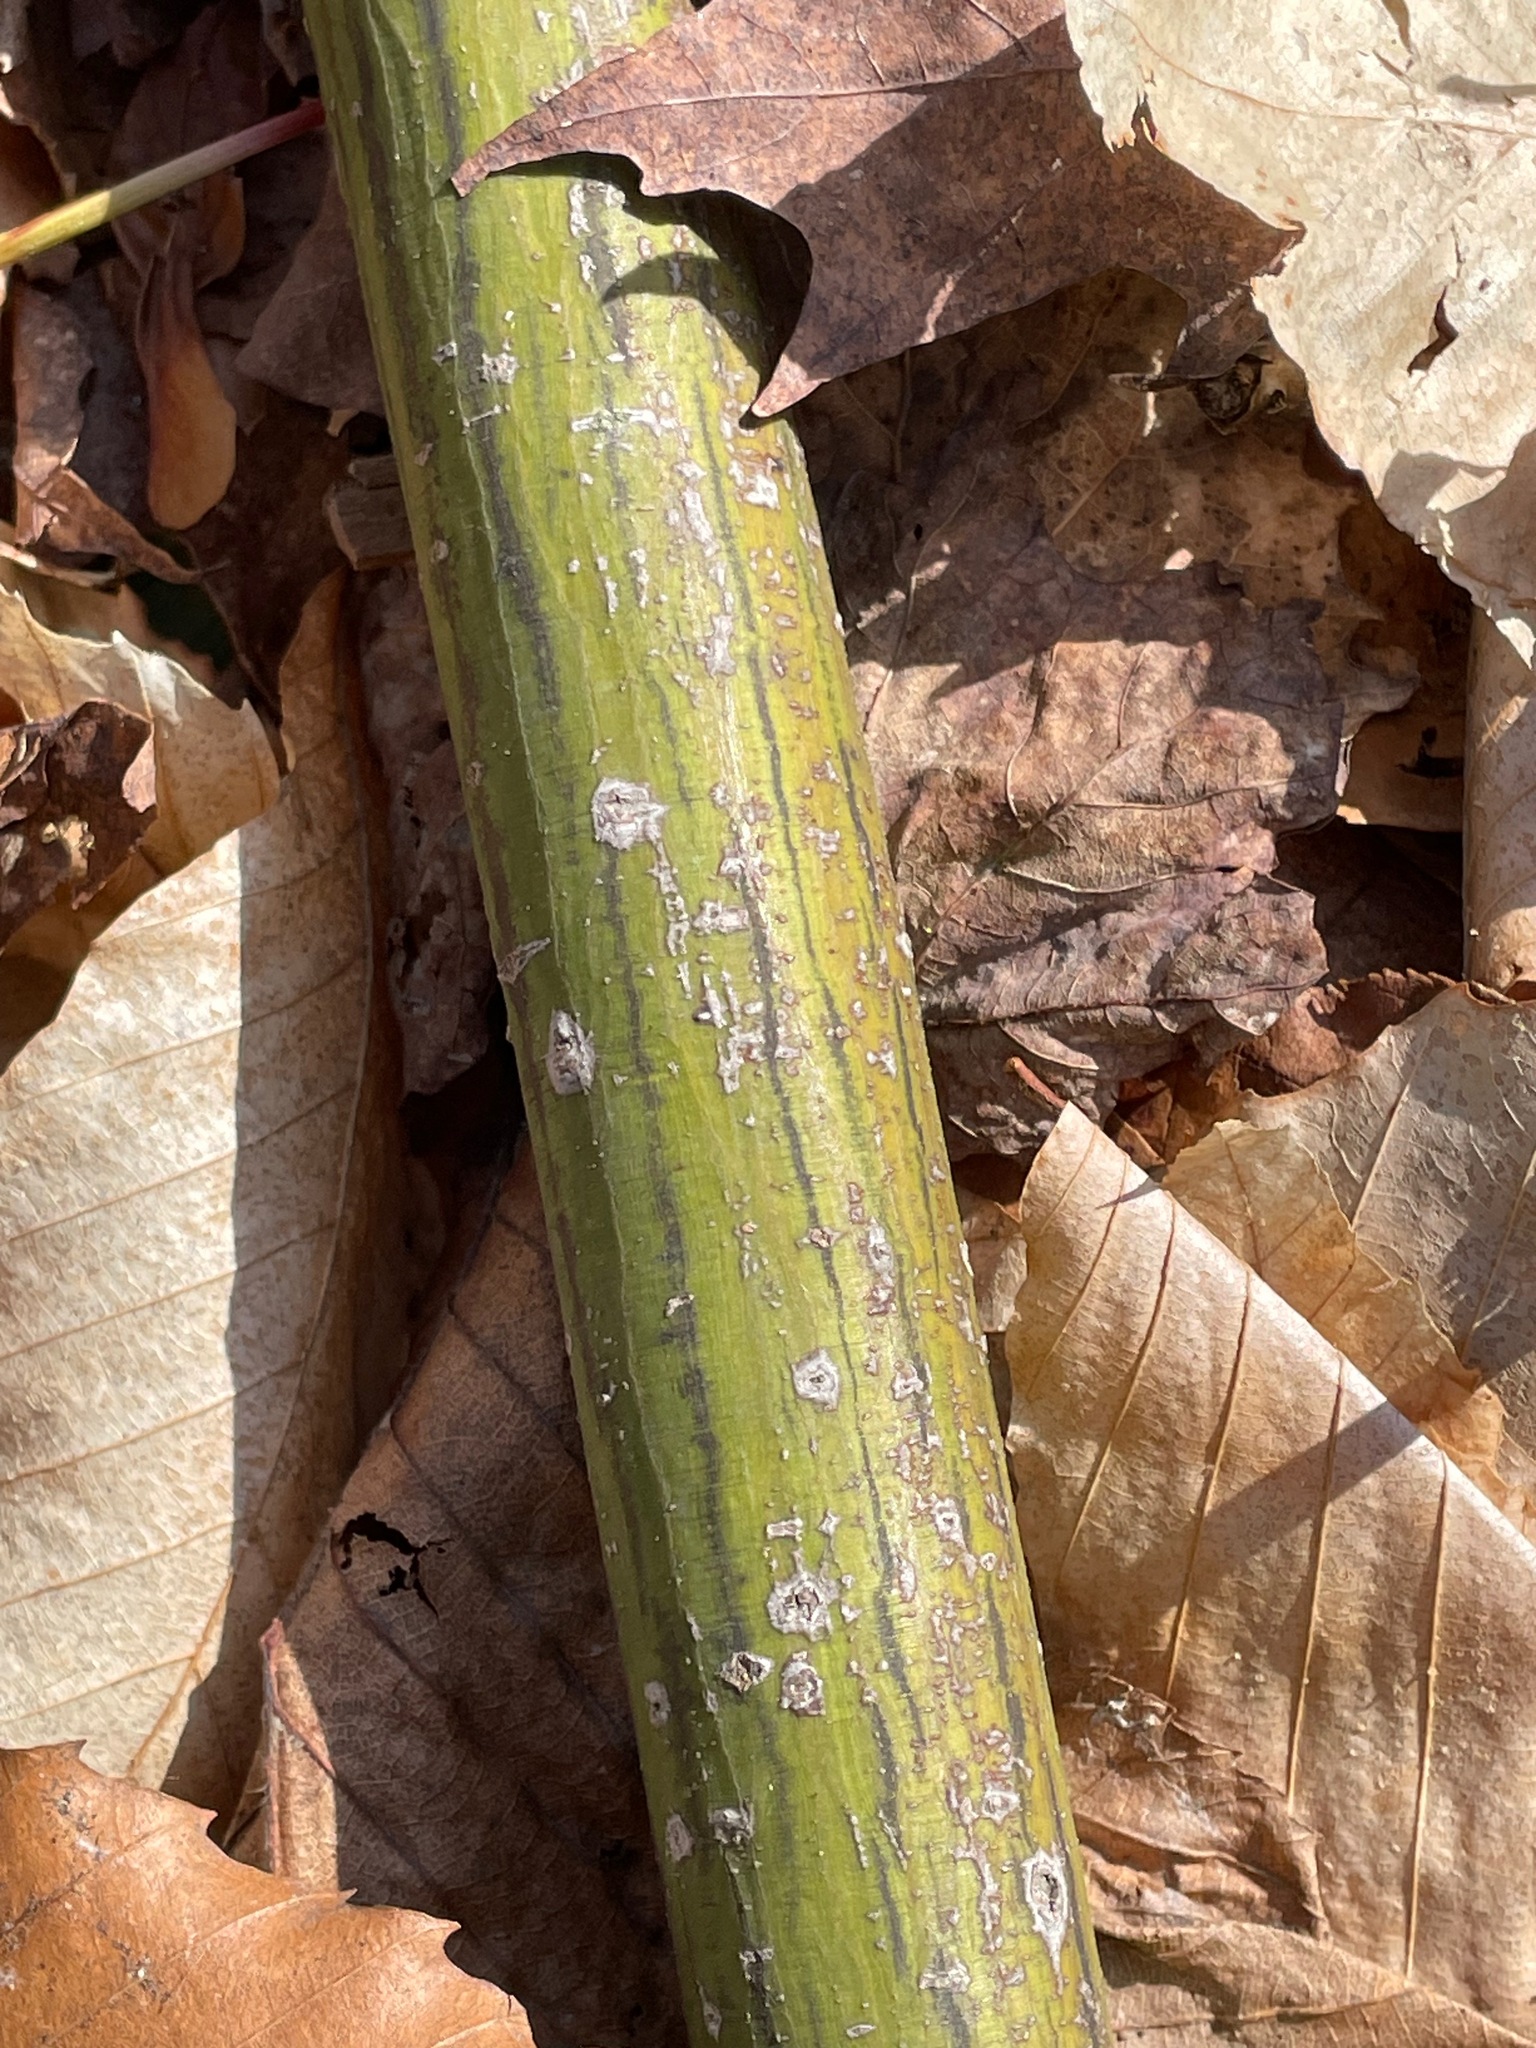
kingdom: Plantae
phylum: Tracheophyta
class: Magnoliopsida
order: Sapindales
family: Sapindaceae
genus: Acer
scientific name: Acer pensylvanicum
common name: Moosewood
